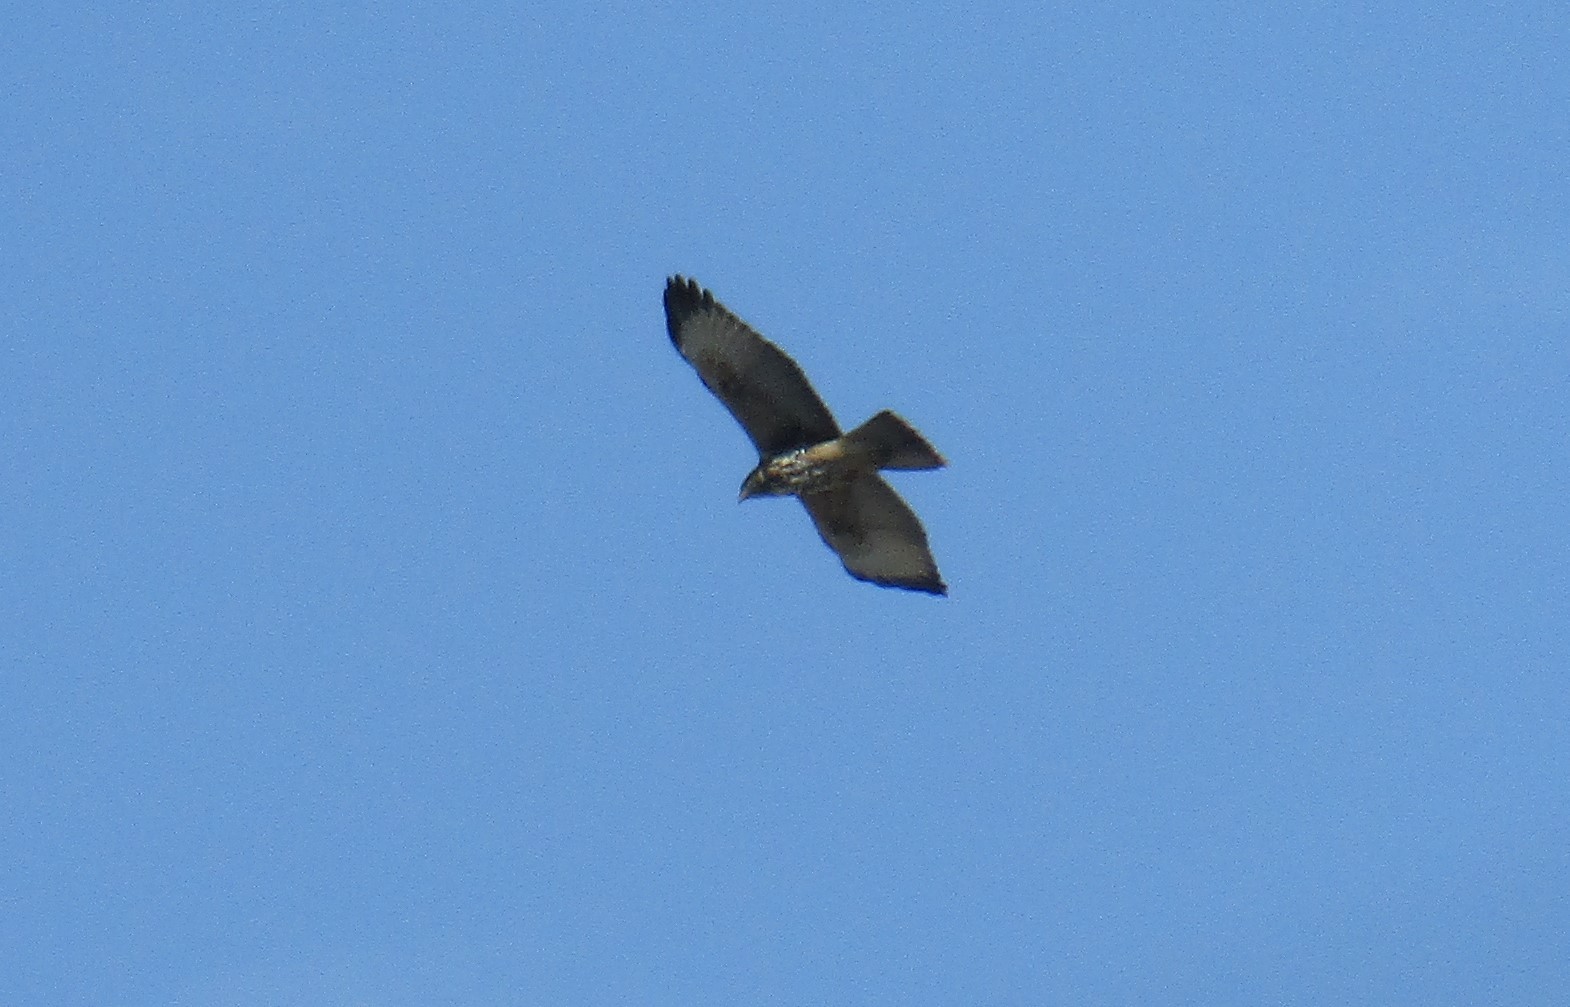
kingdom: Animalia
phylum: Chordata
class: Aves
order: Accipitriformes
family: Accipitridae
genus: Parabuteo
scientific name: Parabuteo unicinctus
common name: Harris's hawk
